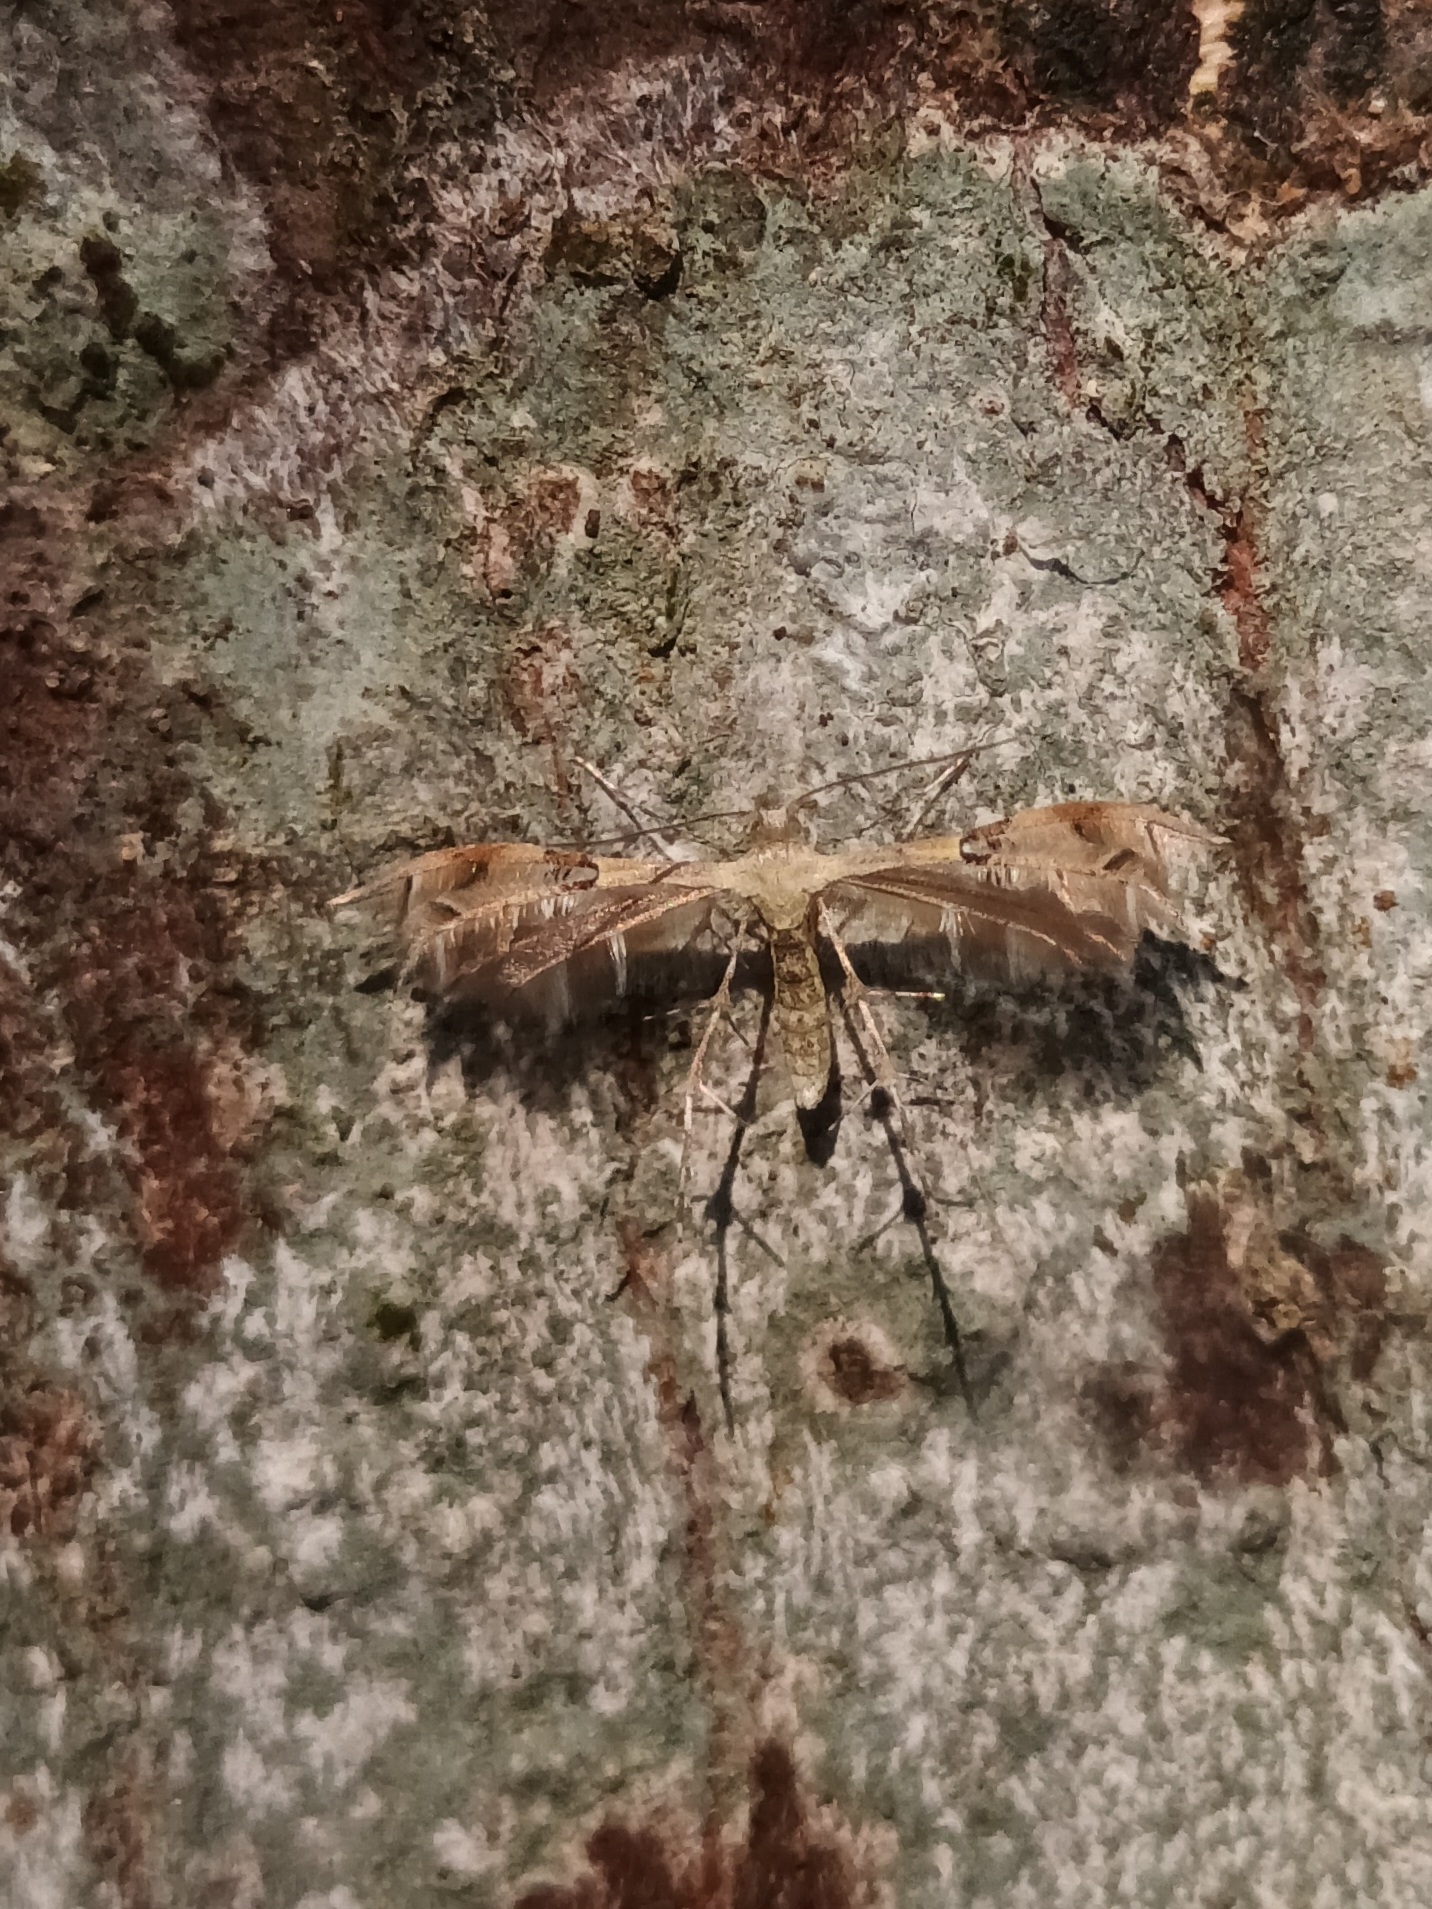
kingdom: Animalia
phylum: Arthropoda
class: Insecta
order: Lepidoptera
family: Pterophoridae
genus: Diacrotricha
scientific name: Diacrotricha fasciola
